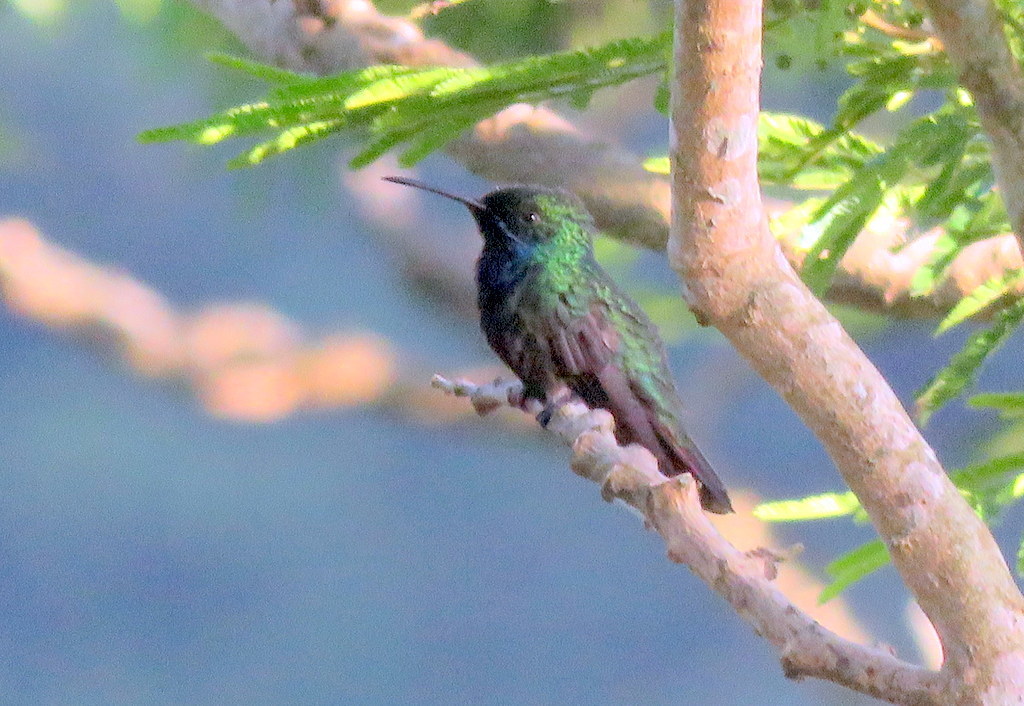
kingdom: Animalia
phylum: Chordata
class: Aves
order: Apodiformes
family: Trochilidae
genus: Anthracothorax
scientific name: Anthracothorax nigricollis
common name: Black-throated mango
